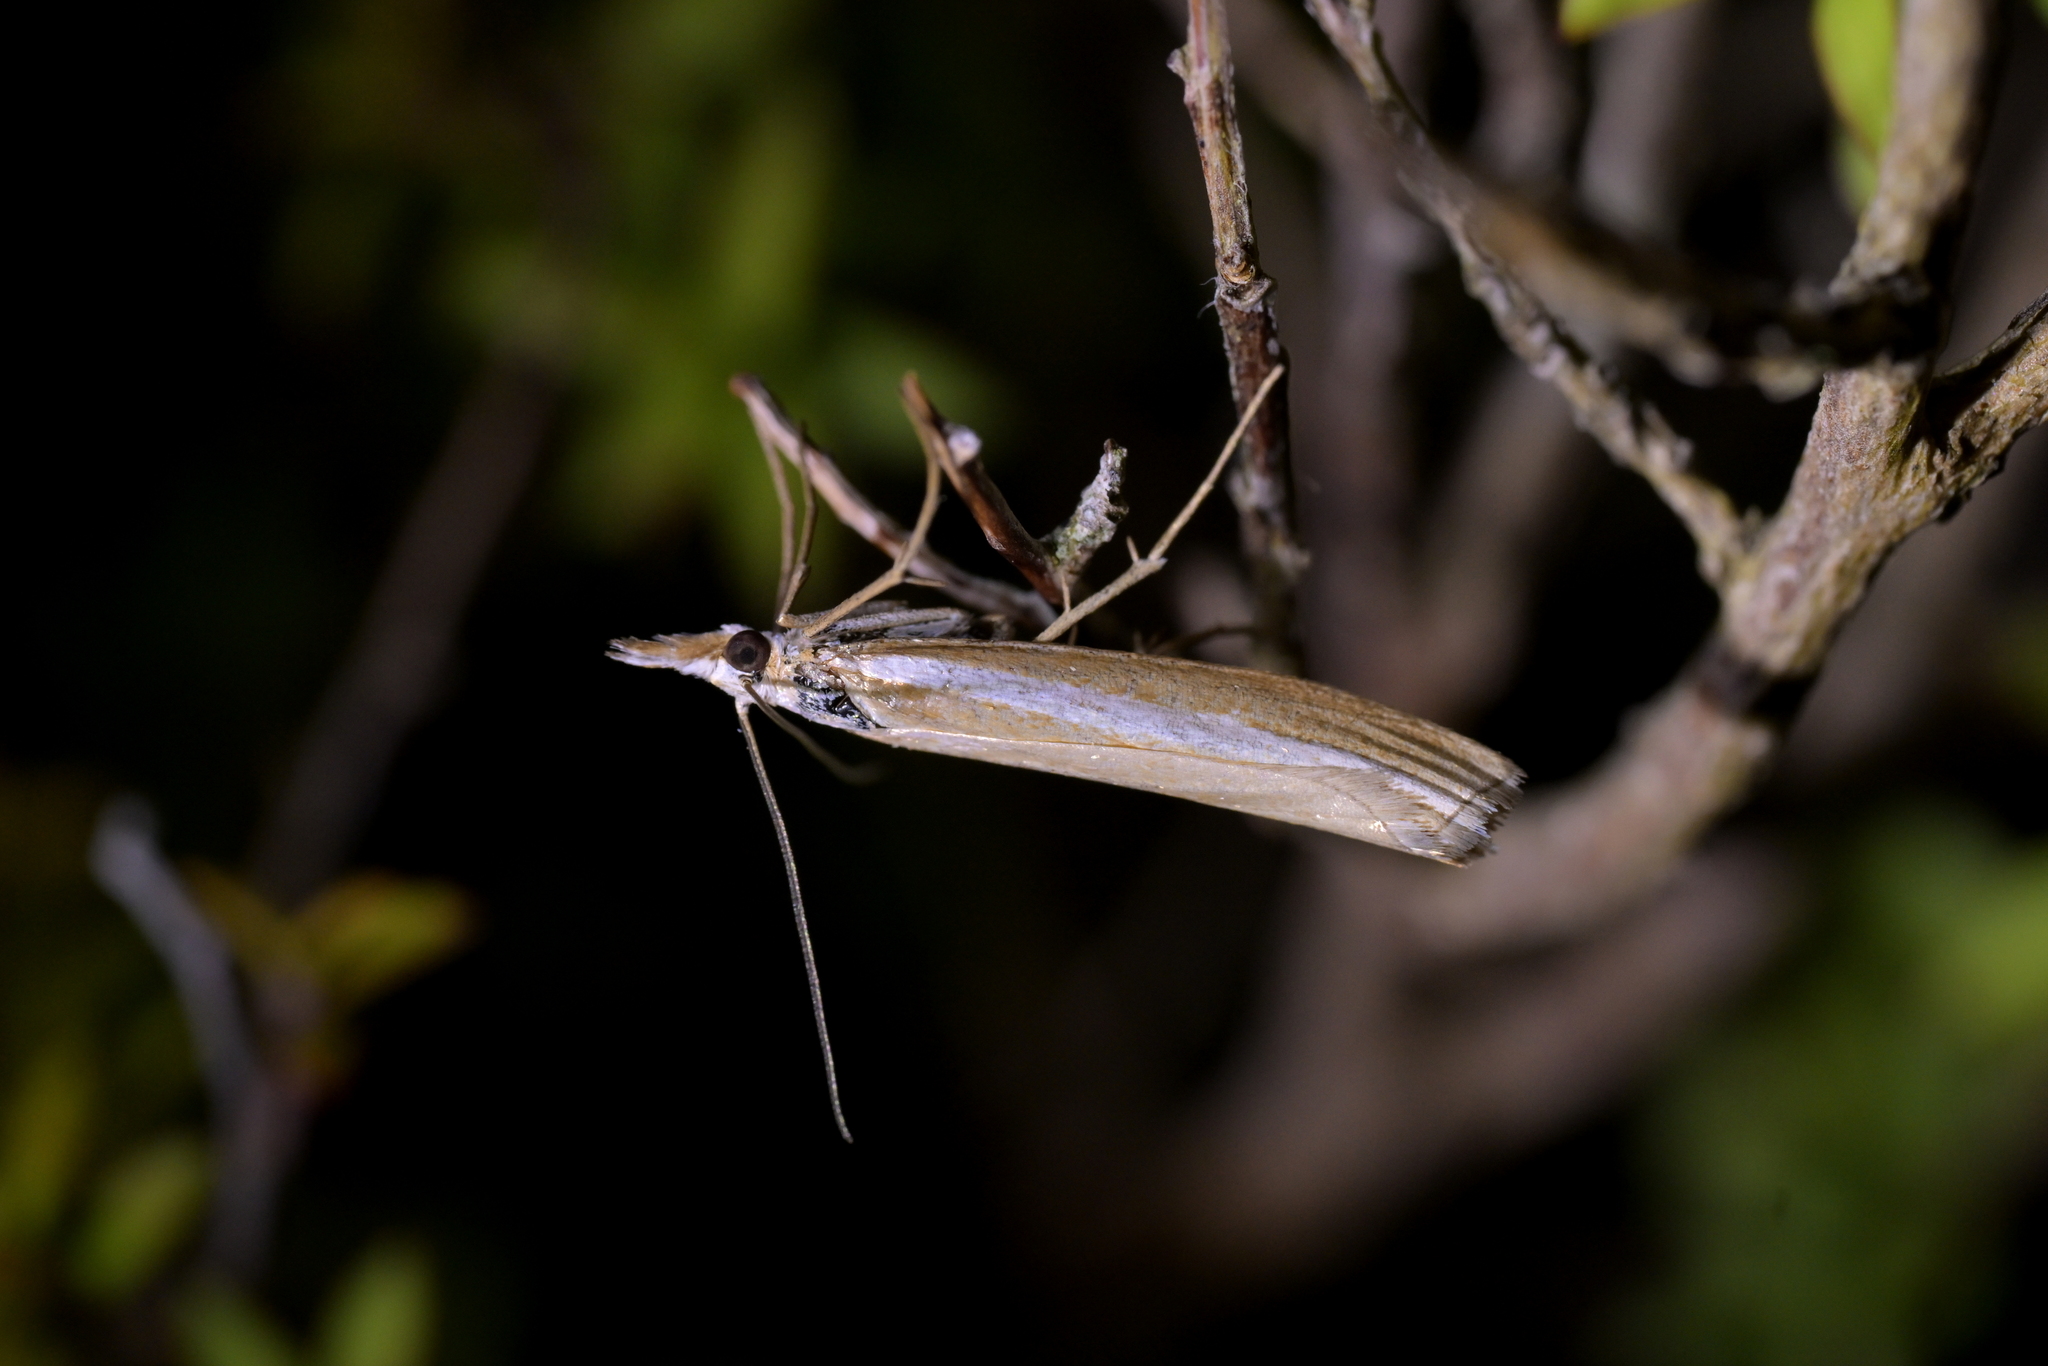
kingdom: Animalia
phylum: Arthropoda
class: Insecta
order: Lepidoptera
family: Crambidae
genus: Orocrambus
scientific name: Orocrambus vittellus
